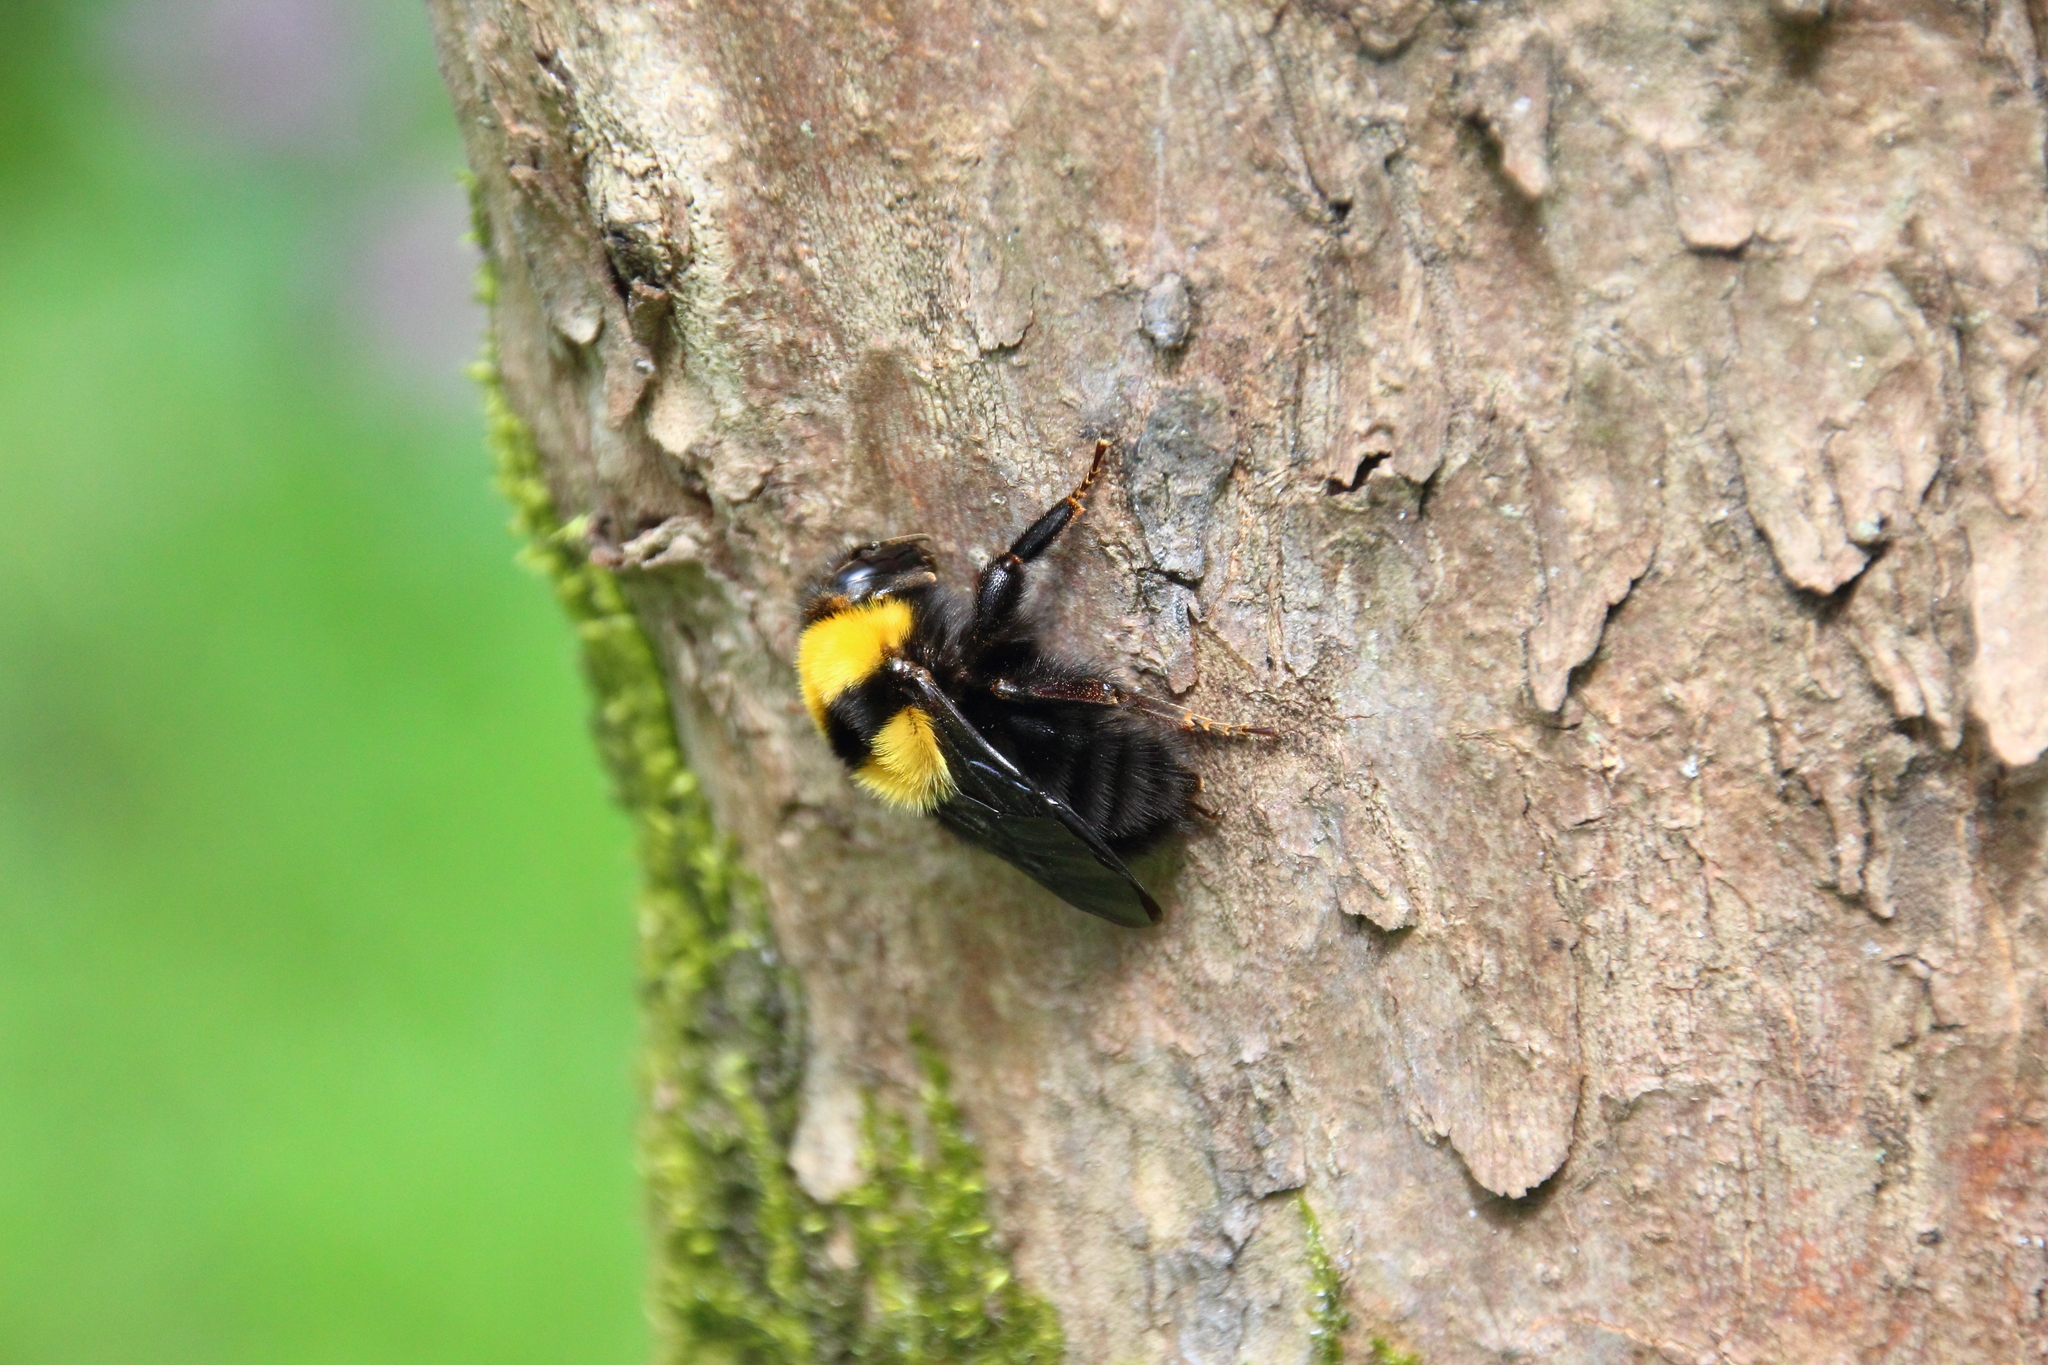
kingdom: Animalia
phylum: Arthropoda
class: Insecta
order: Hymenoptera
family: Apidae
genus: Bombus
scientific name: Bombus argillaceus
